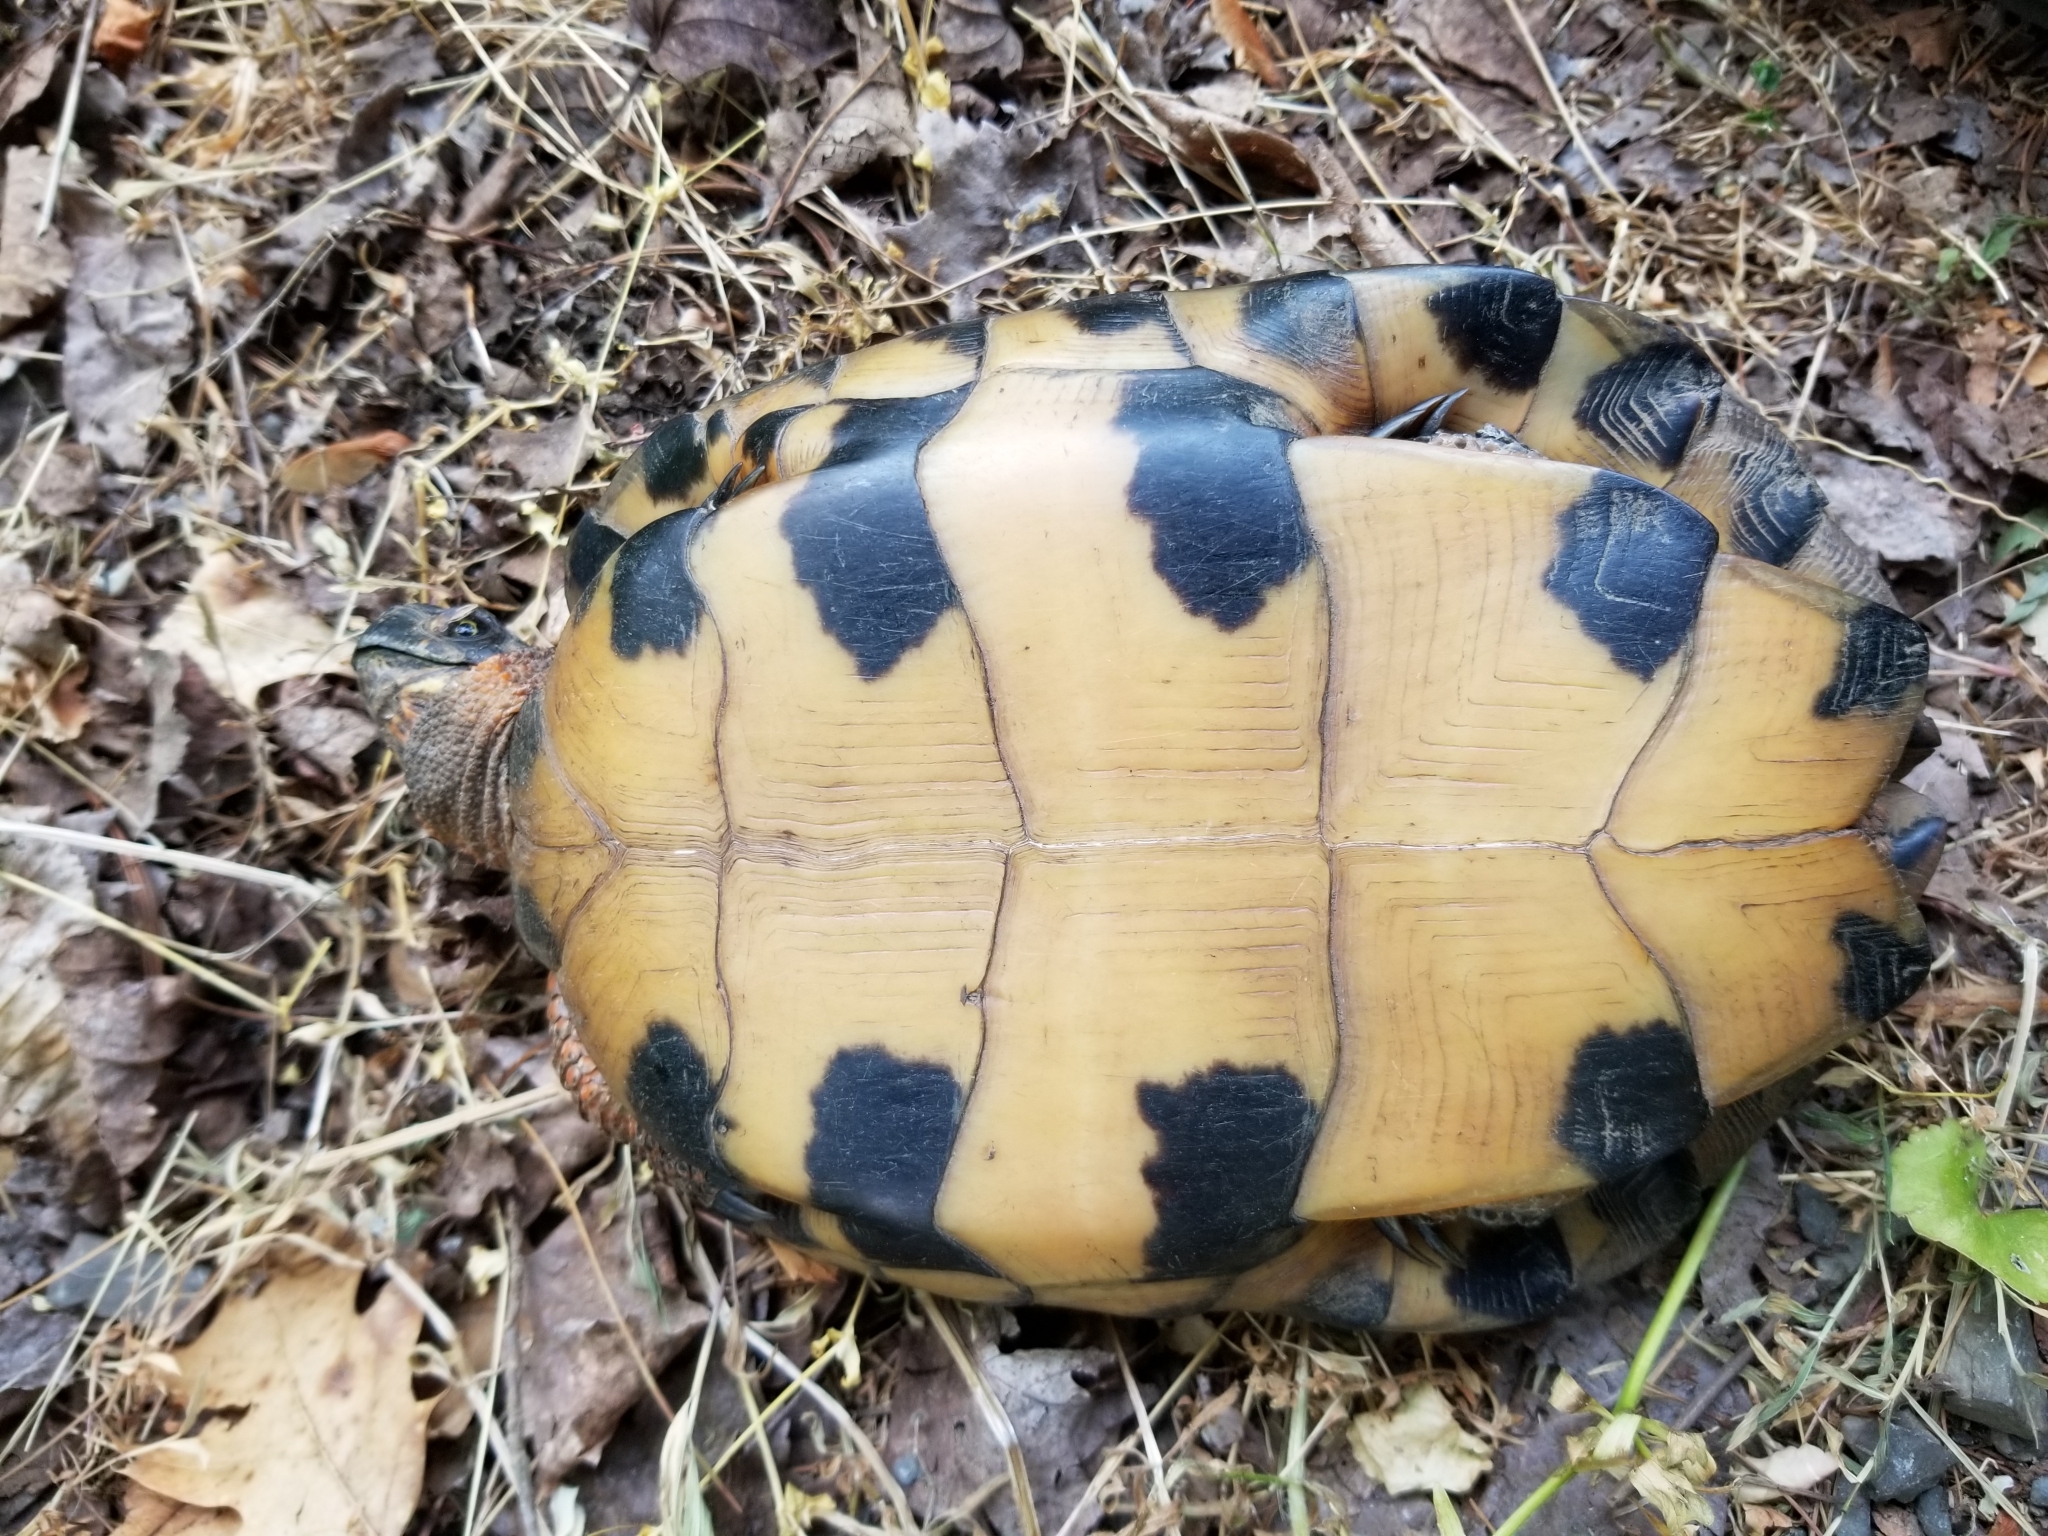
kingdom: Animalia
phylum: Chordata
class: Testudines
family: Emydidae
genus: Glyptemys
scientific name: Glyptemys insculpta
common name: Wood turtle
